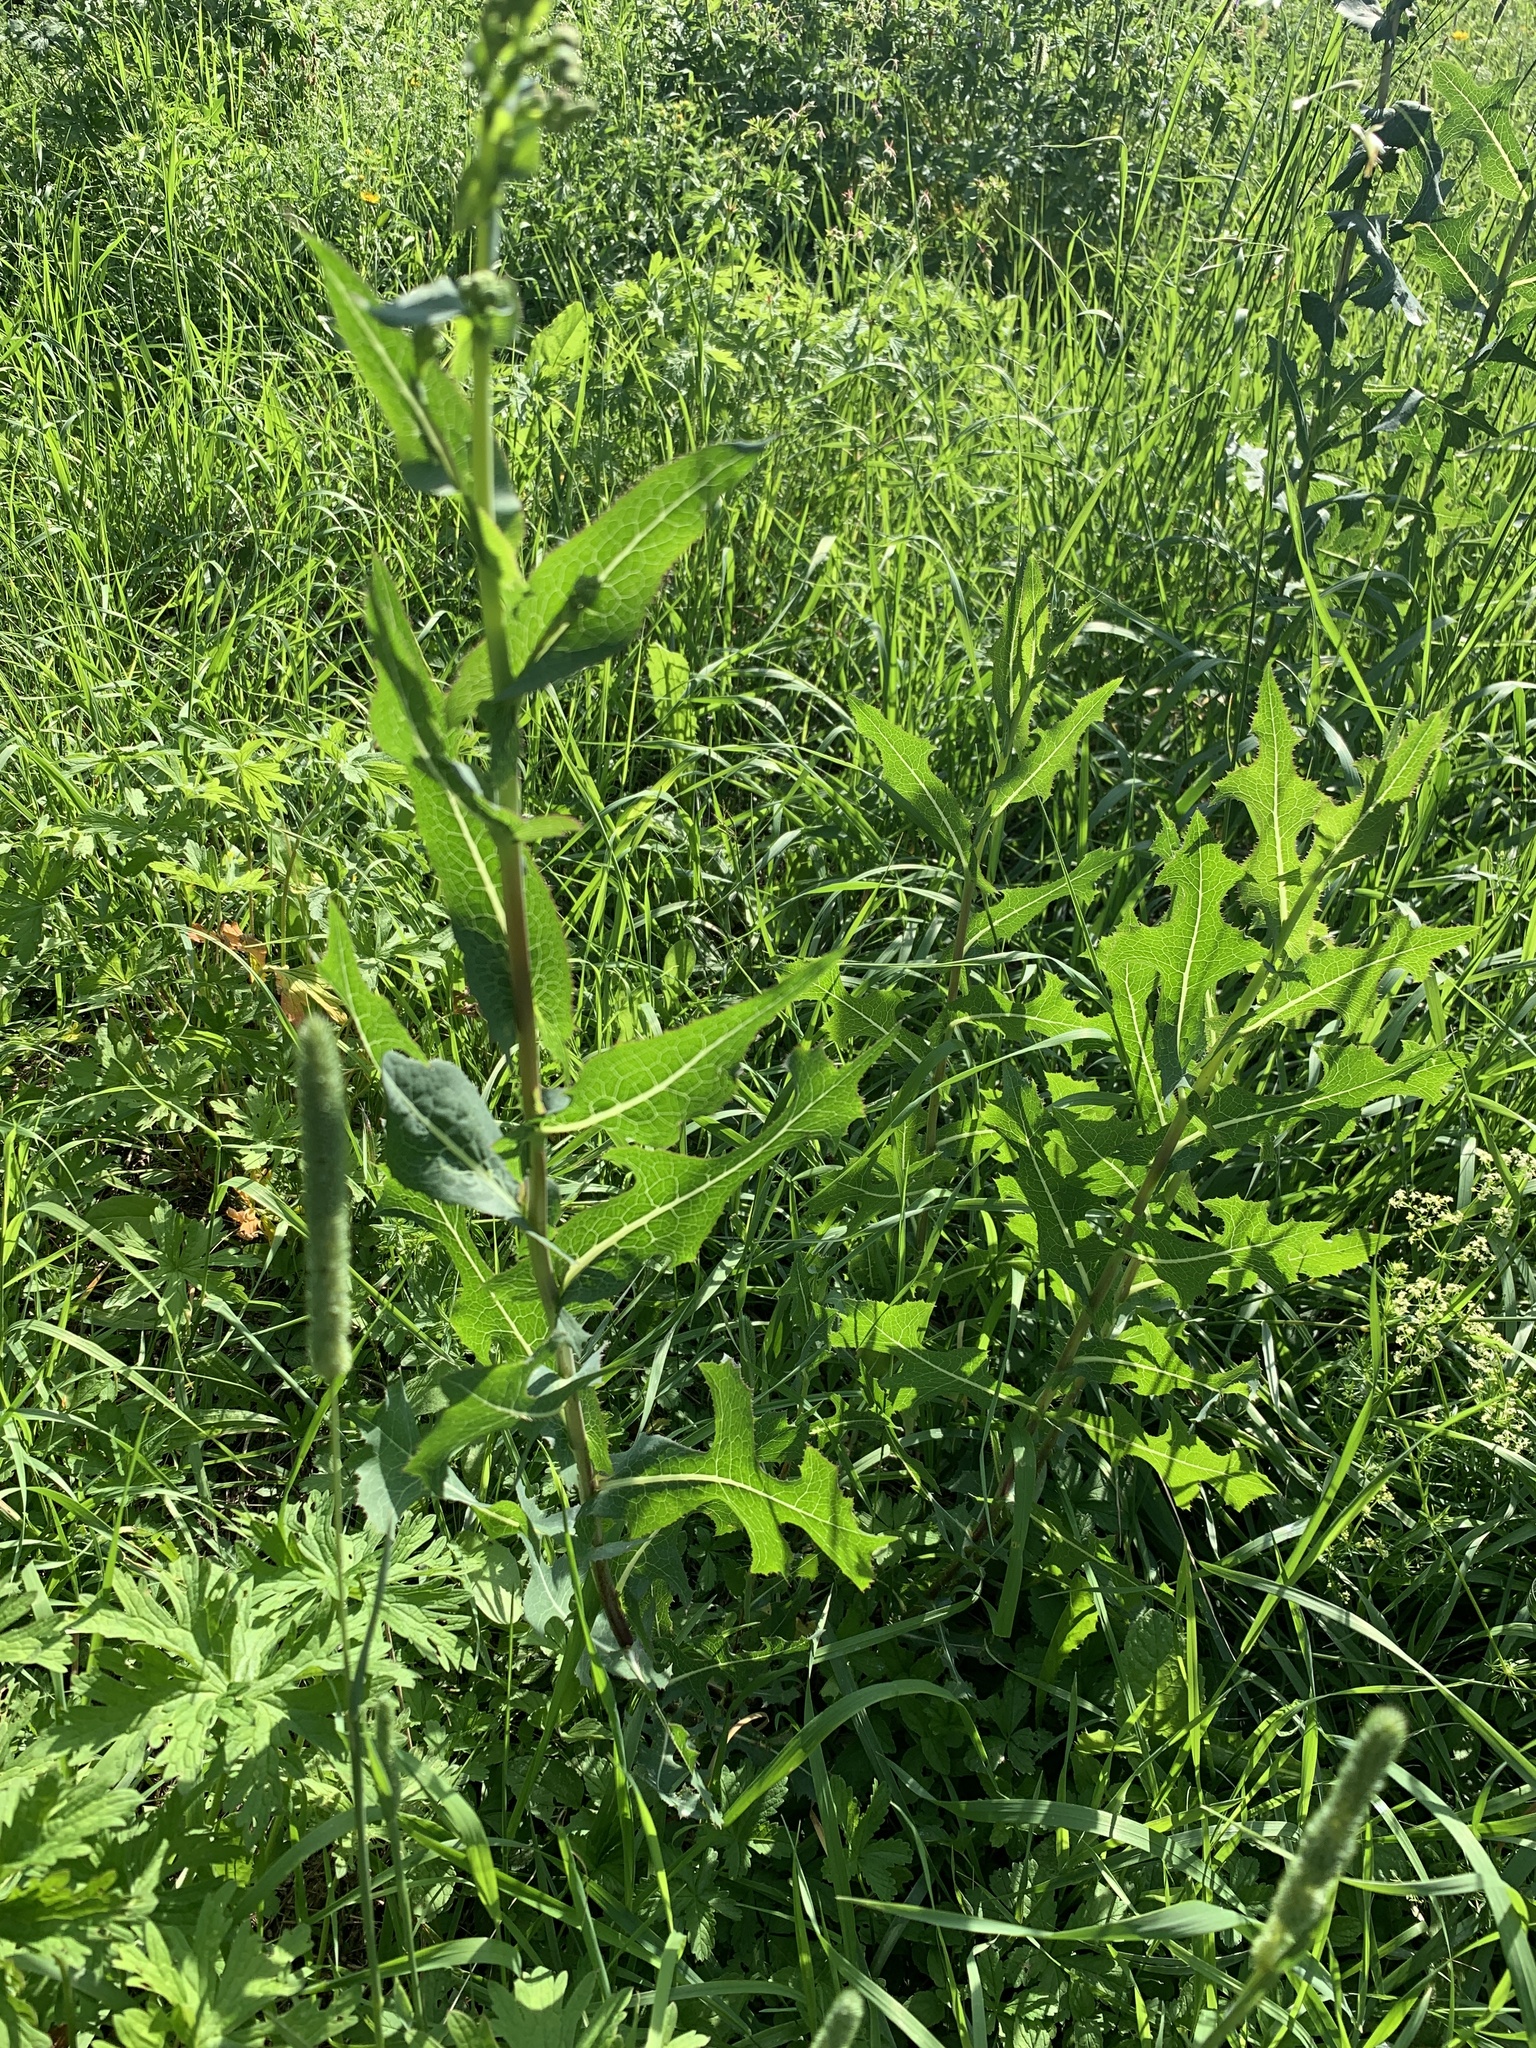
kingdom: Plantae
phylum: Tracheophyta
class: Magnoliopsida
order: Asterales
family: Asteraceae
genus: Lactuca
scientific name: Lactuca serriola
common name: Prickly lettuce
